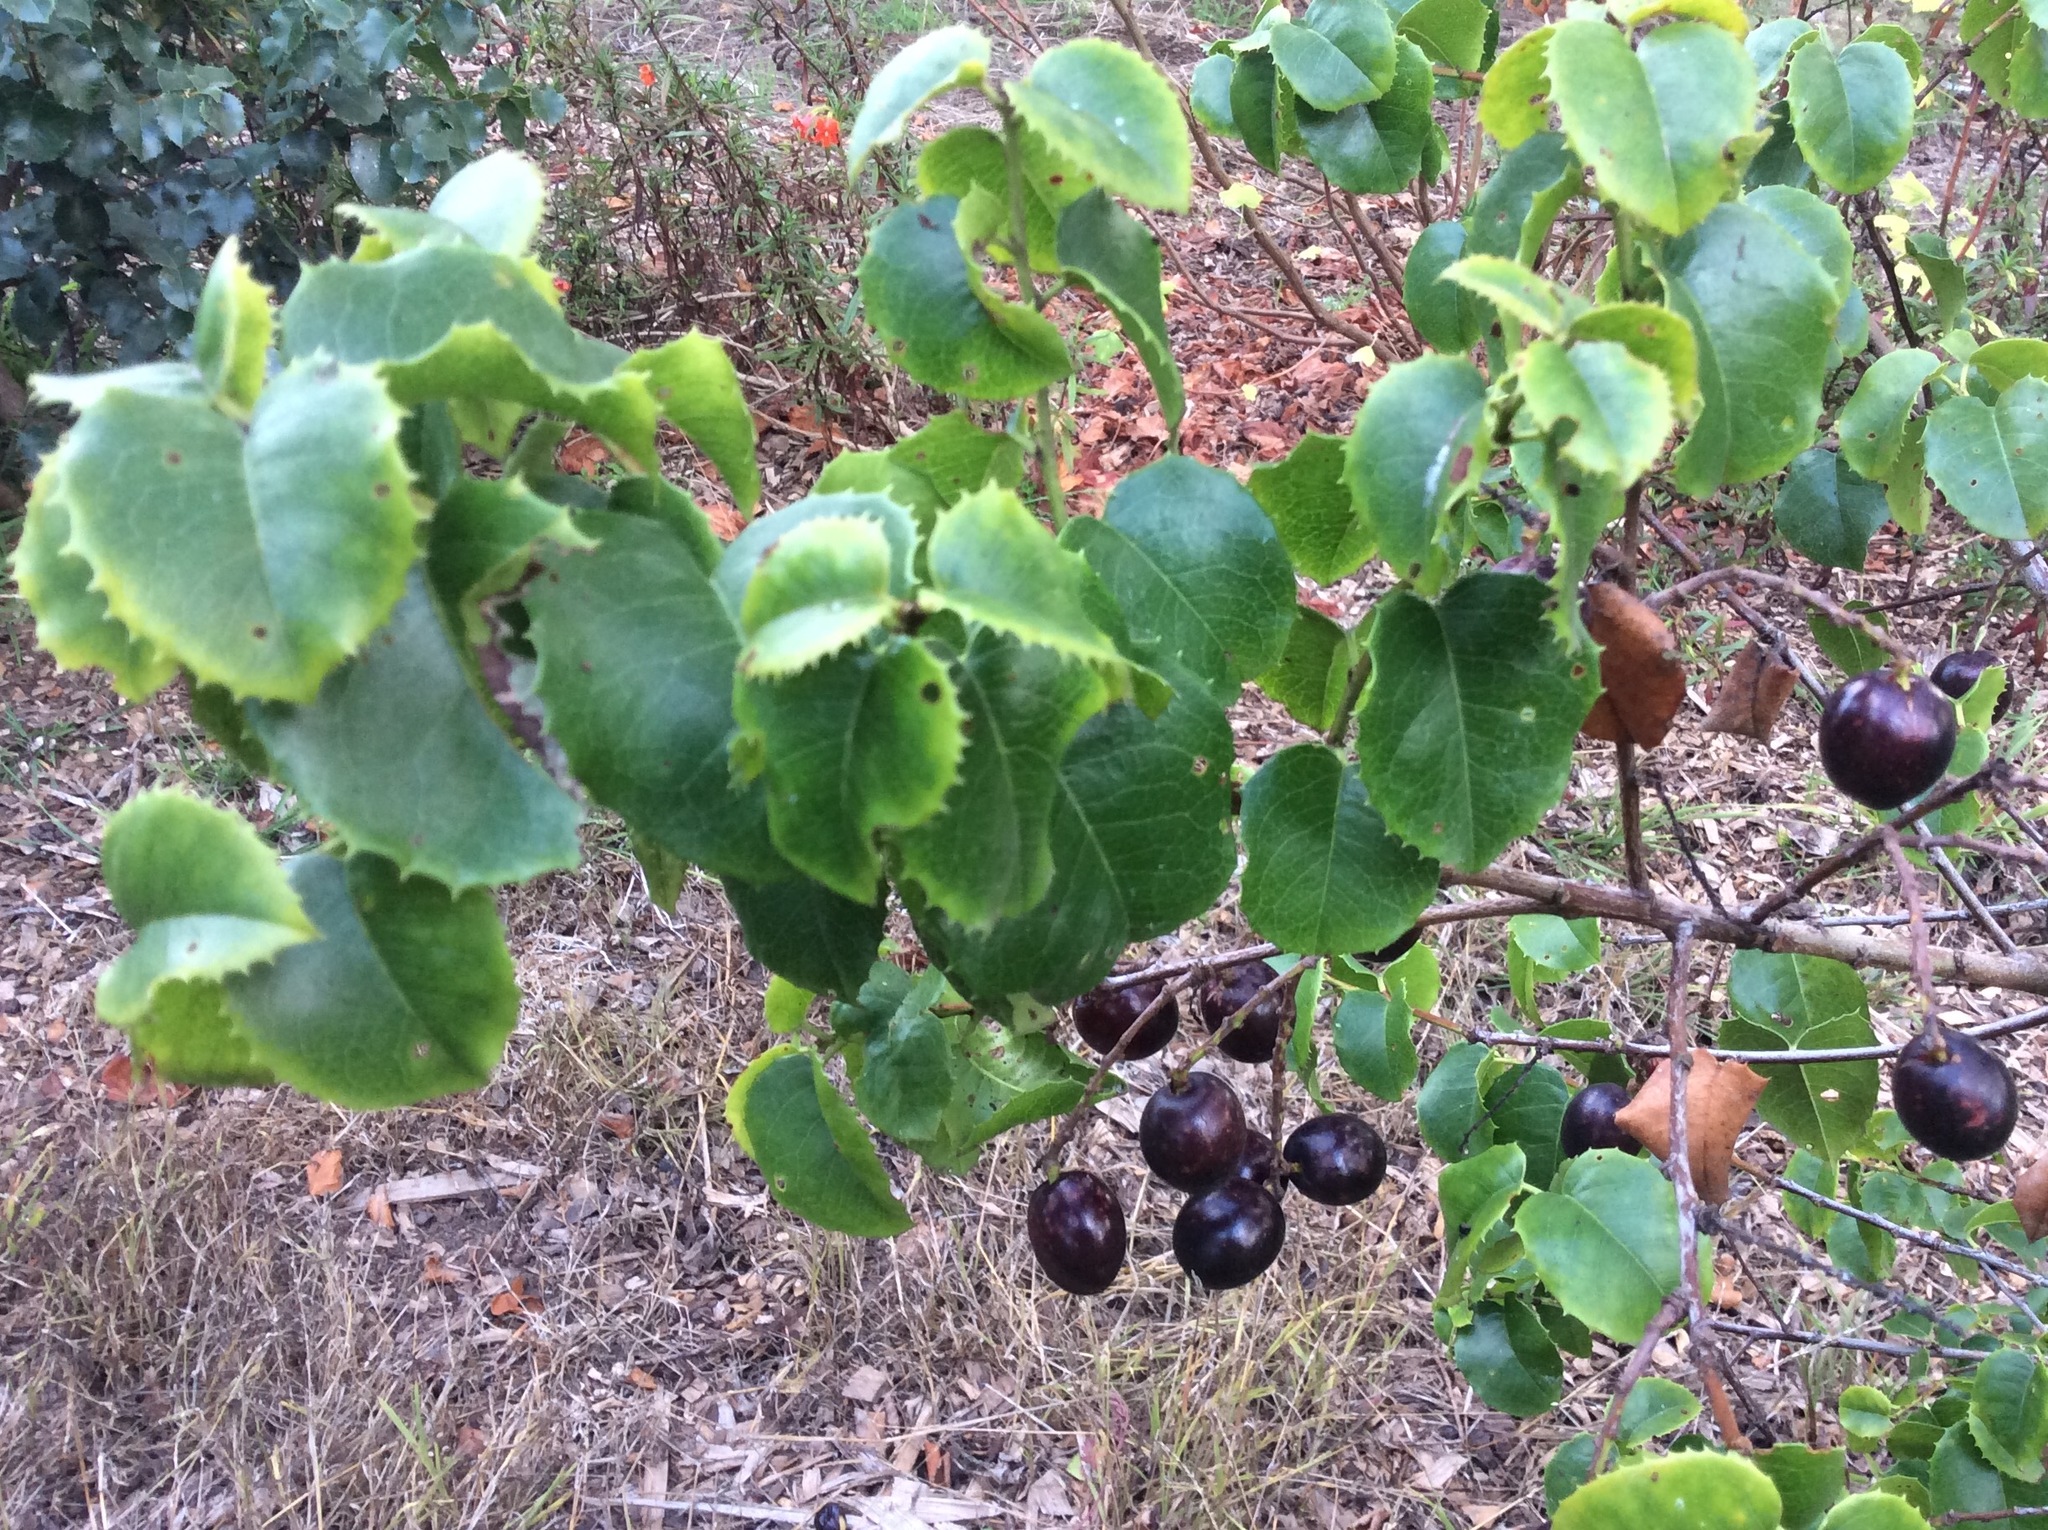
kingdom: Plantae
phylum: Tracheophyta
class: Magnoliopsida
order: Rosales
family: Rosaceae
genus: Prunus
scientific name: Prunus ilicifolia
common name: Hollyleaf cherry
